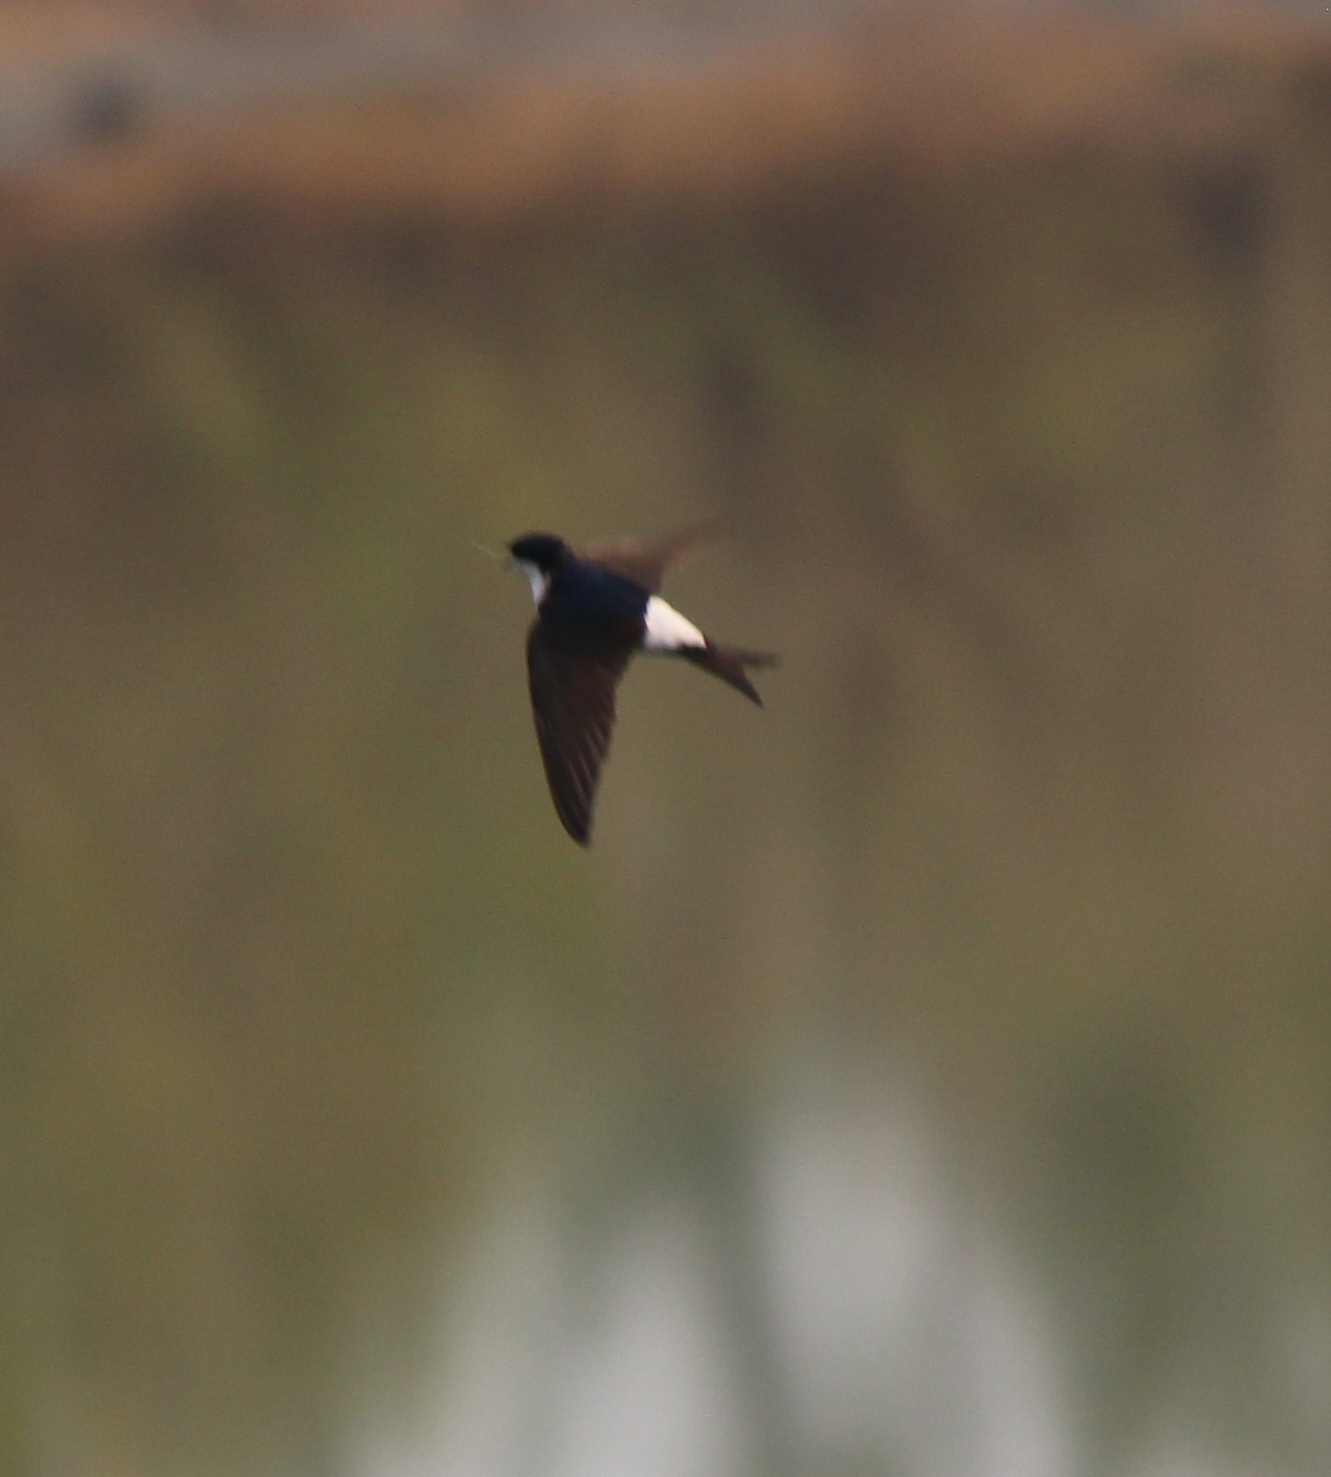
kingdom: Animalia
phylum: Chordata
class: Aves
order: Passeriformes
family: Hirundinidae
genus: Delichon
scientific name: Delichon urbicum
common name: Common house martin
